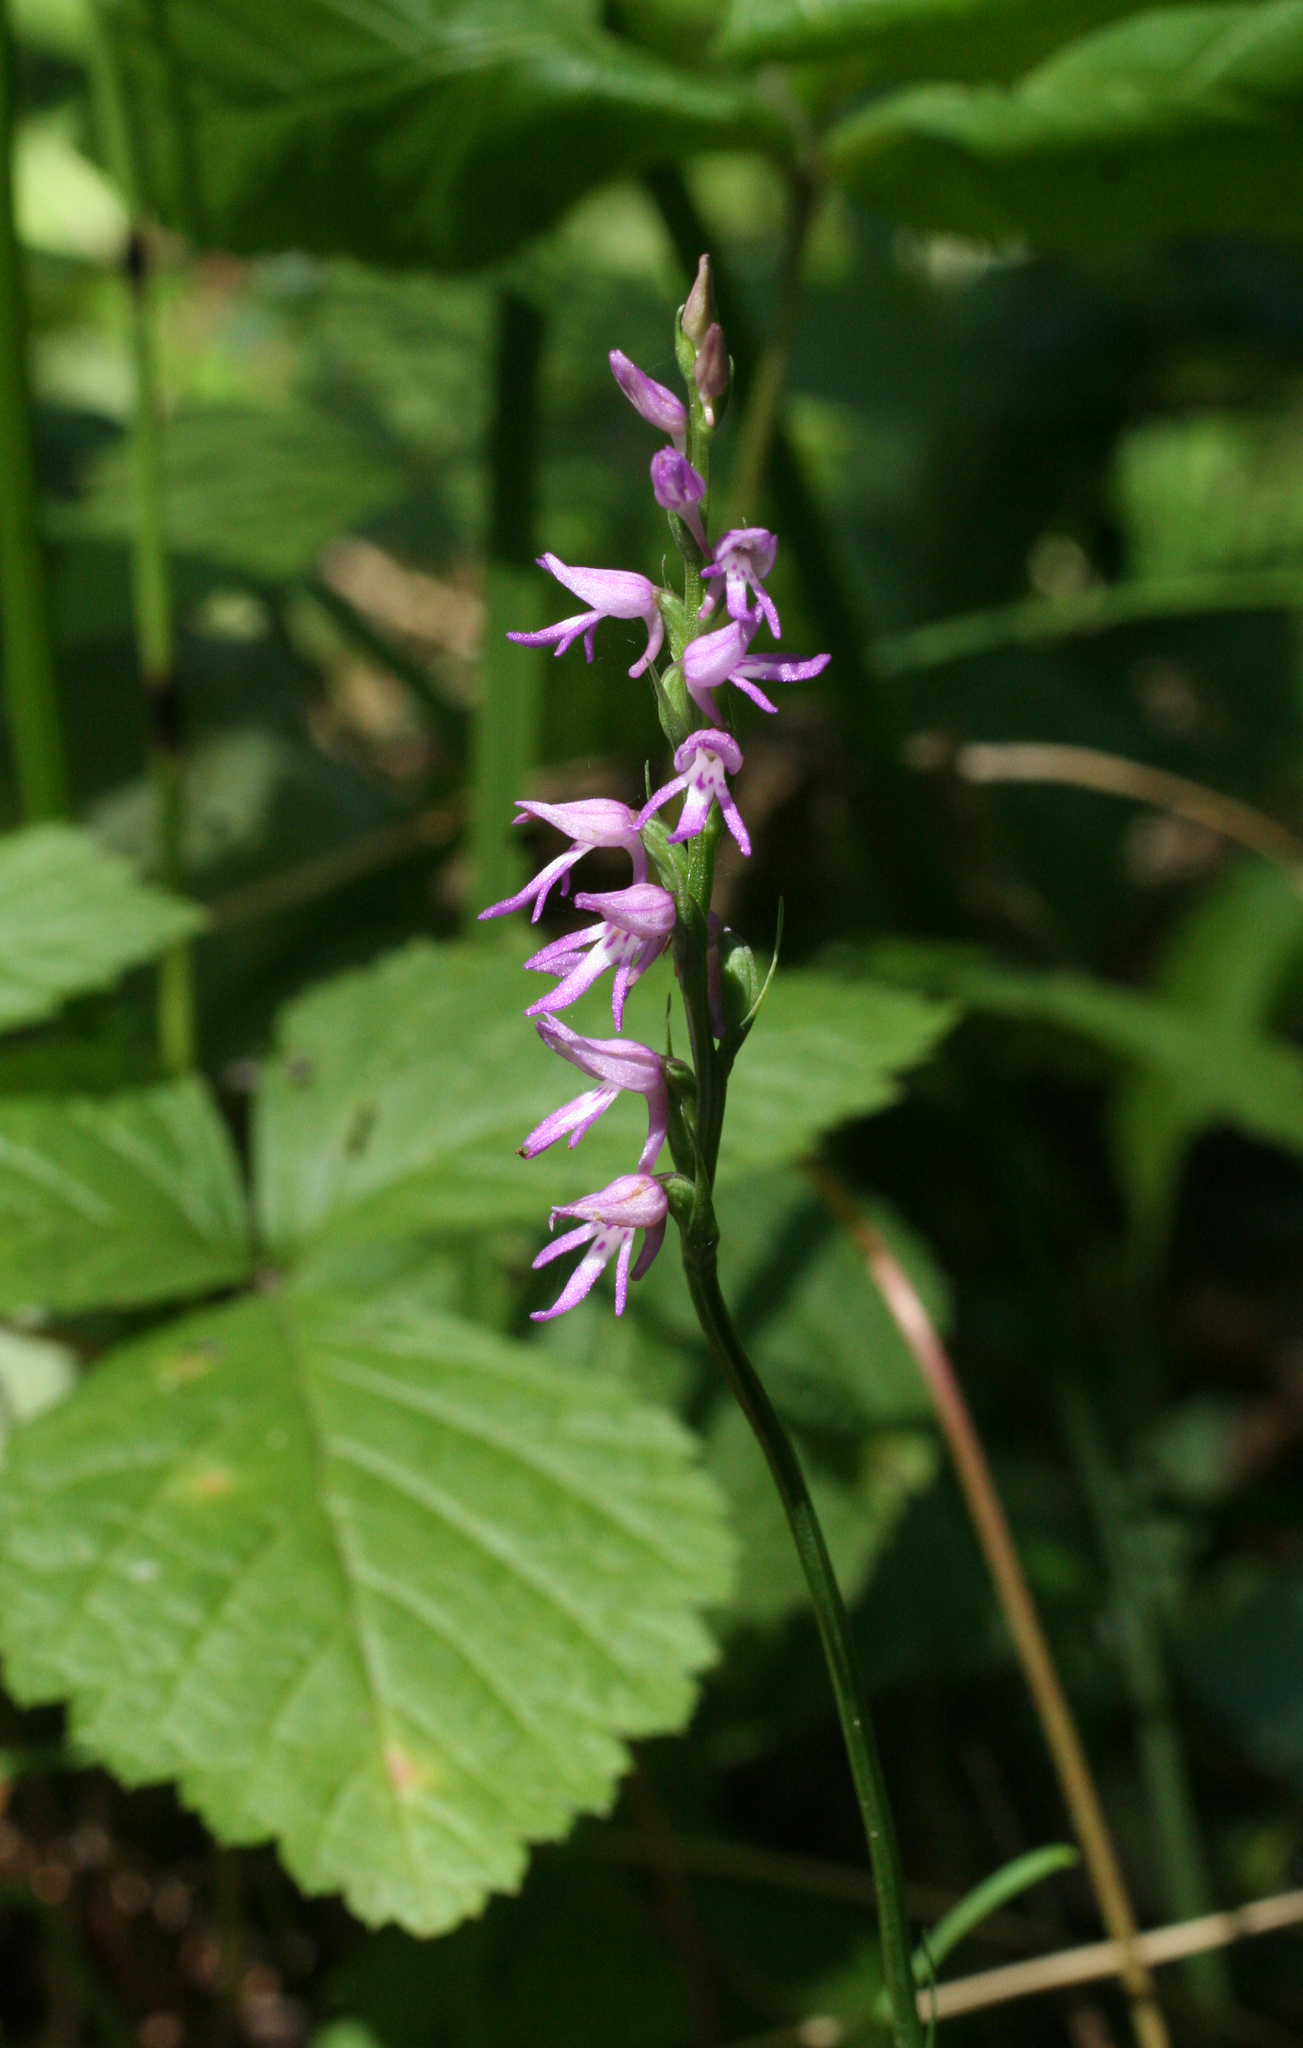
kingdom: Plantae
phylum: Tracheophyta
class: Liliopsida
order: Asparagales
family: Orchidaceae
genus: Hemipilia
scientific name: Hemipilia cucullata
